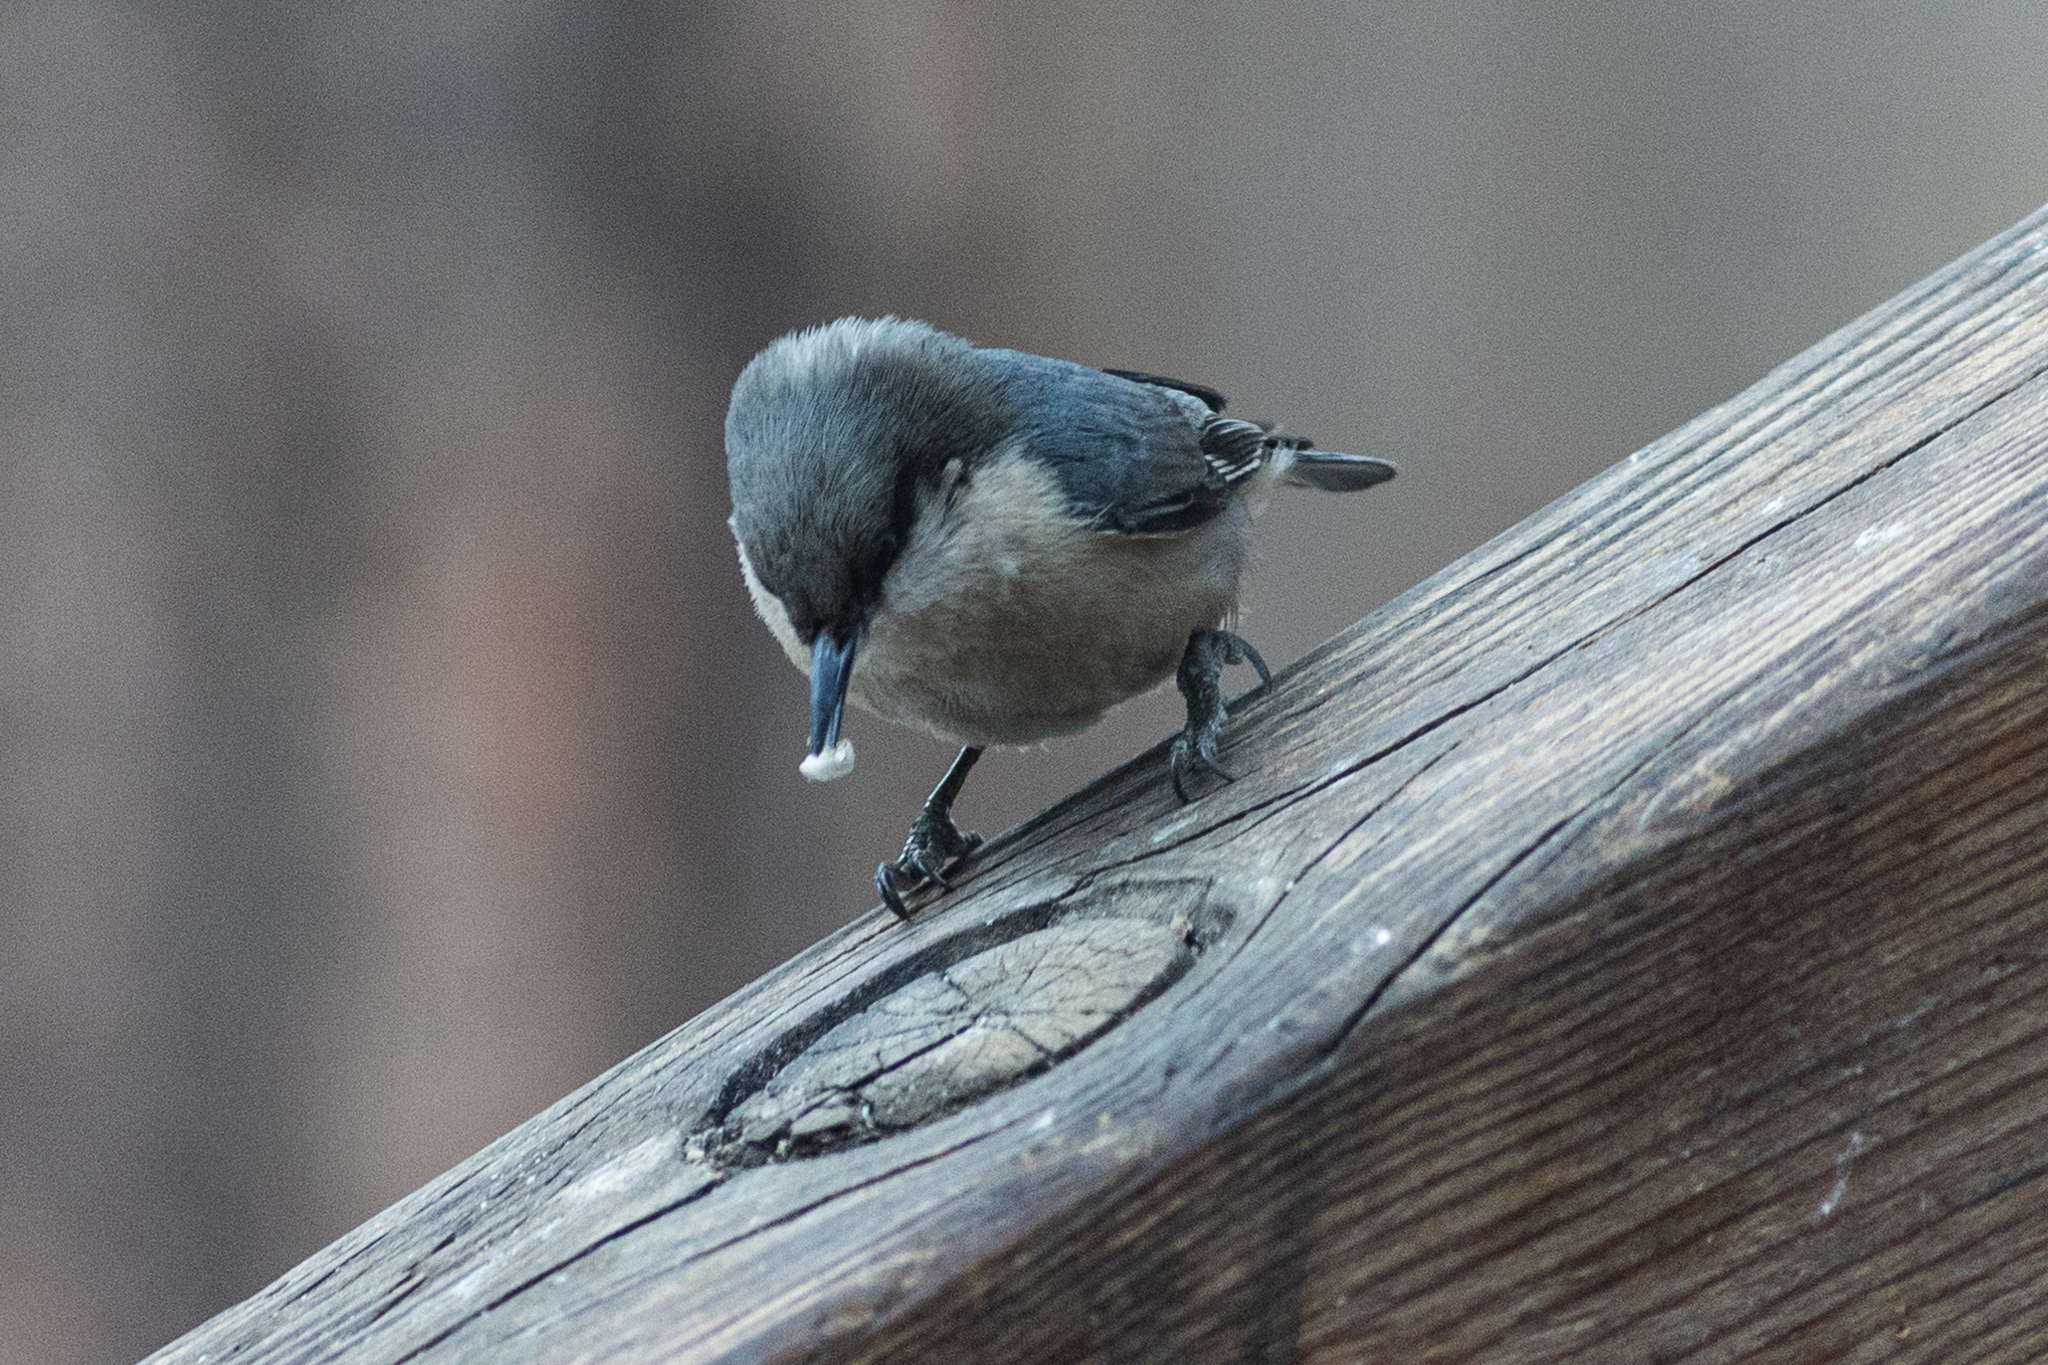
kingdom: Animalia
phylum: Chordata
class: Aves
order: Passeriformes
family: Sittidae
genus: Sitta
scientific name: Sitta pygmaea
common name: Pygmy nuthatch
